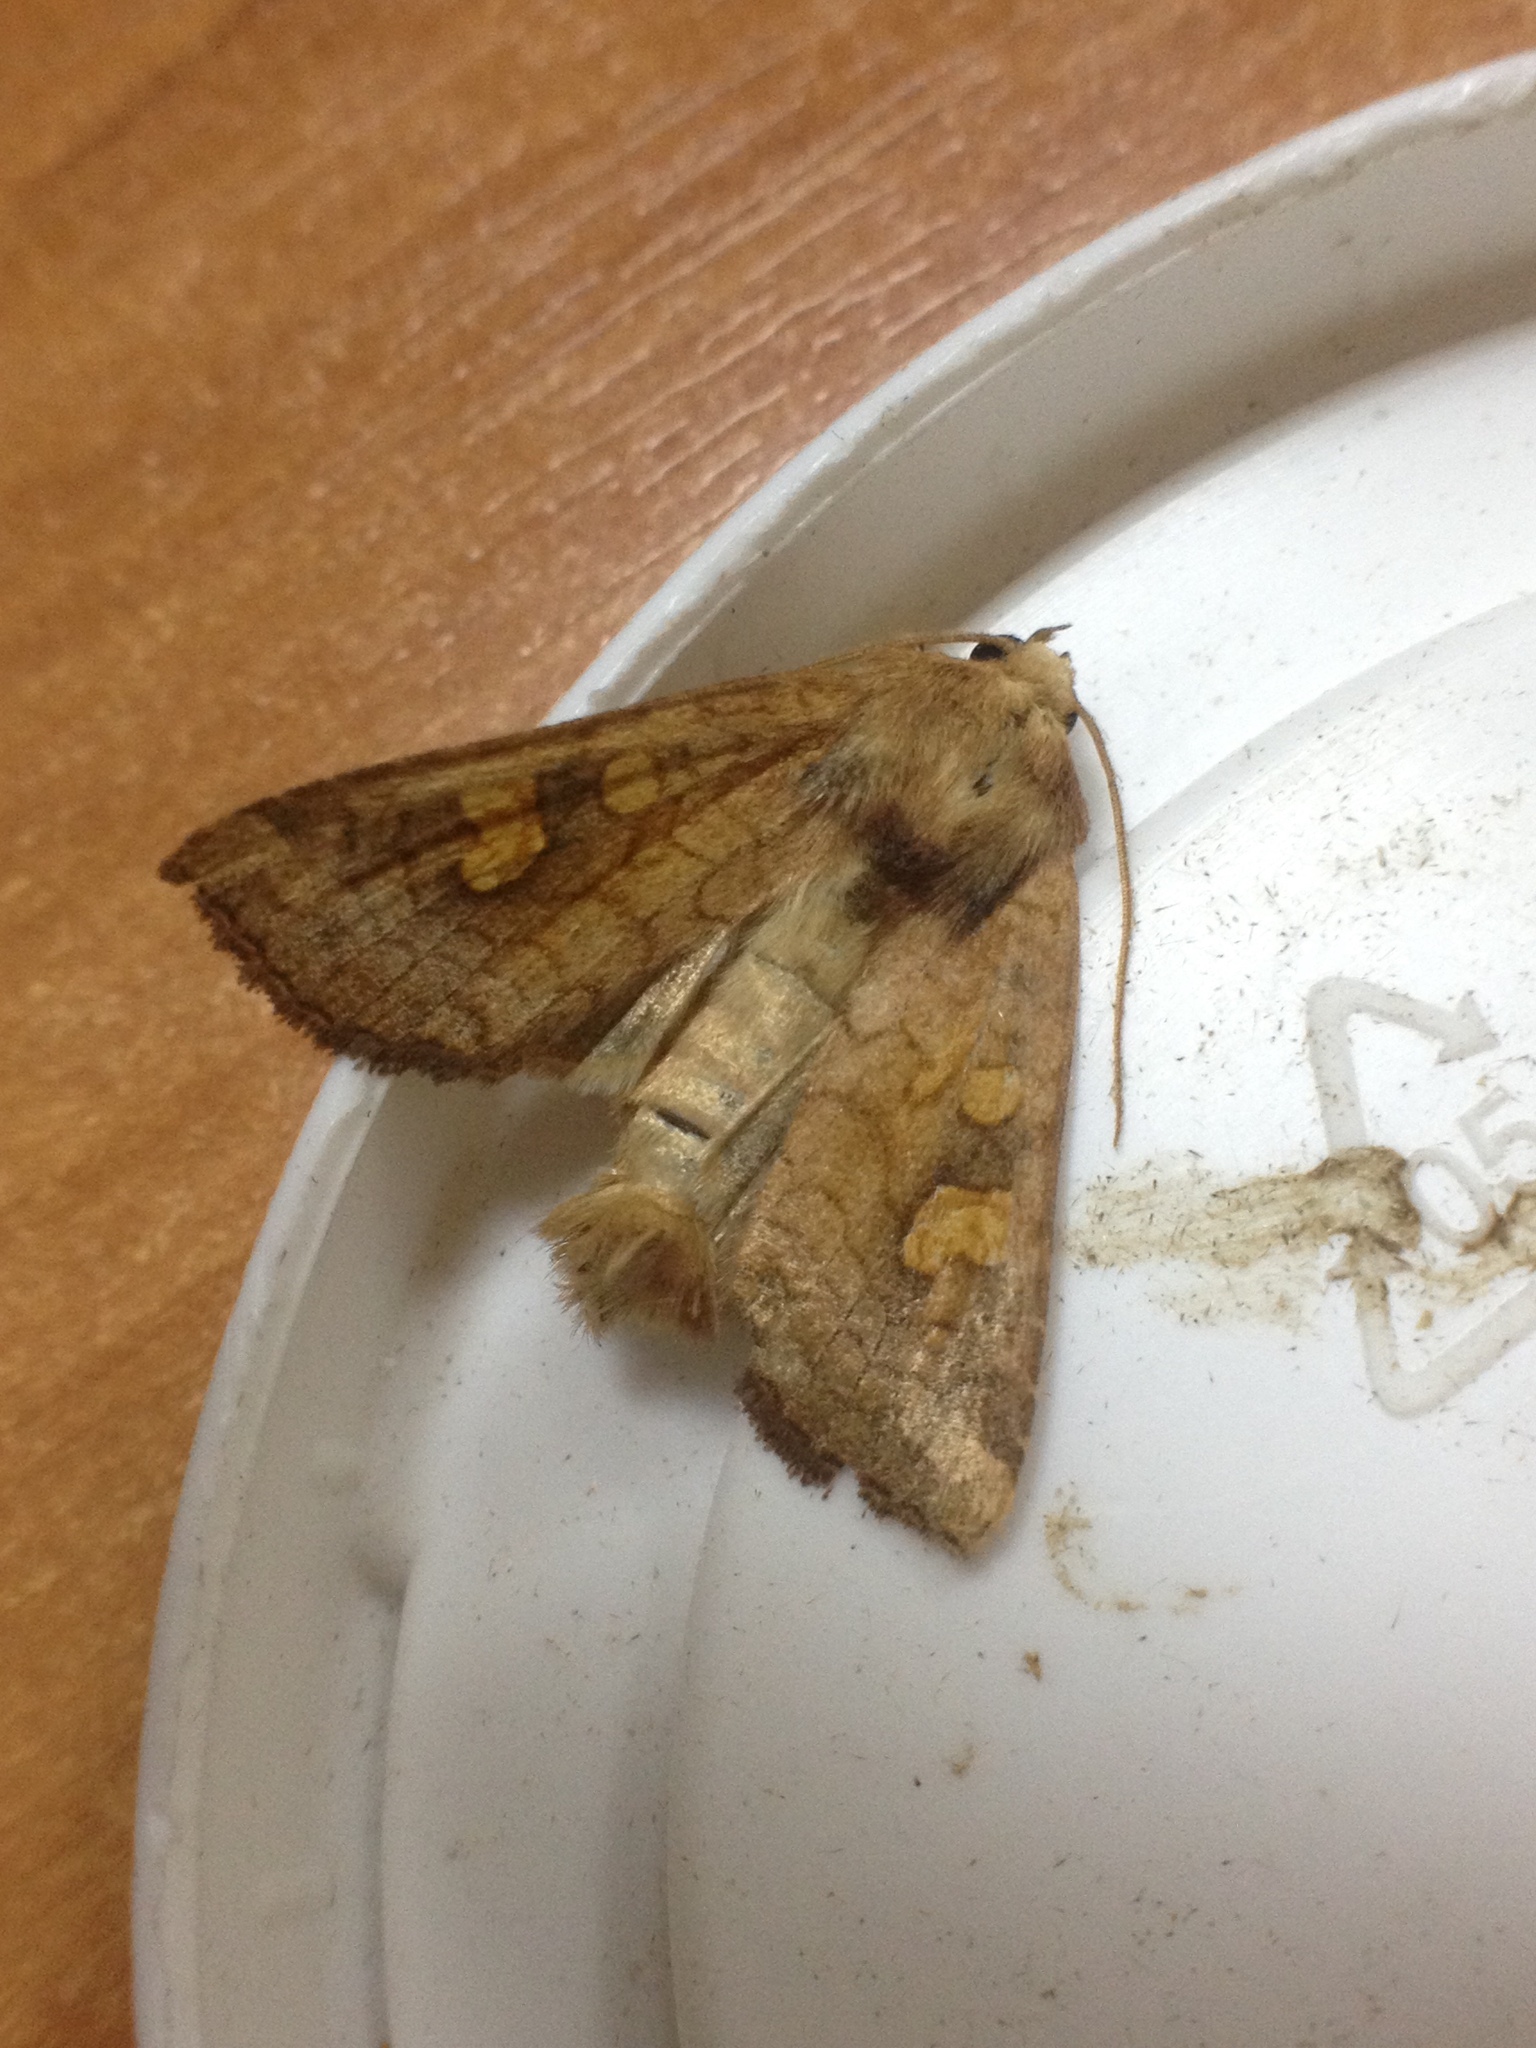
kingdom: Animalia
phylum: Arthropoda
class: Insecta
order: Lepidoptera
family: Noctuidae
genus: Amphipoea
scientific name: Amphipoea fucosa
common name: Saltern ear
